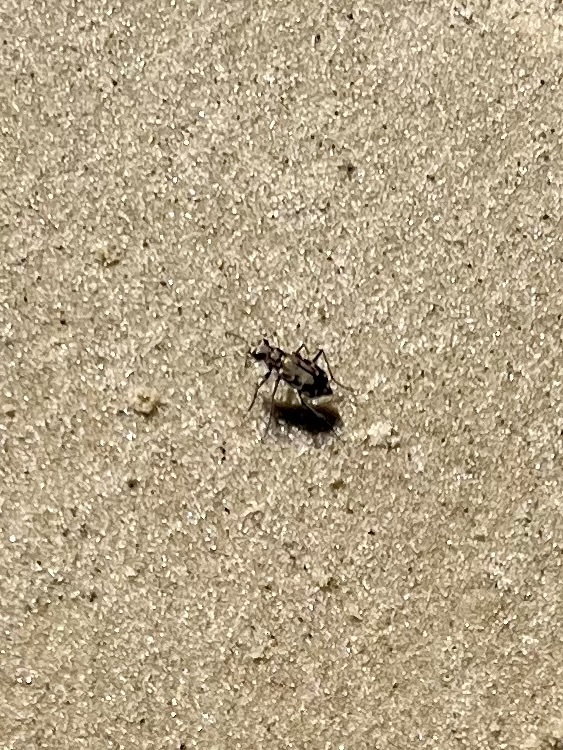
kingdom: Animalia
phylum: Arthropoda
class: Insecta
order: Coleoptera
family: Carabidae
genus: Cicindela
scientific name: Cicindela repanda
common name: Bronzed tiger beetle
